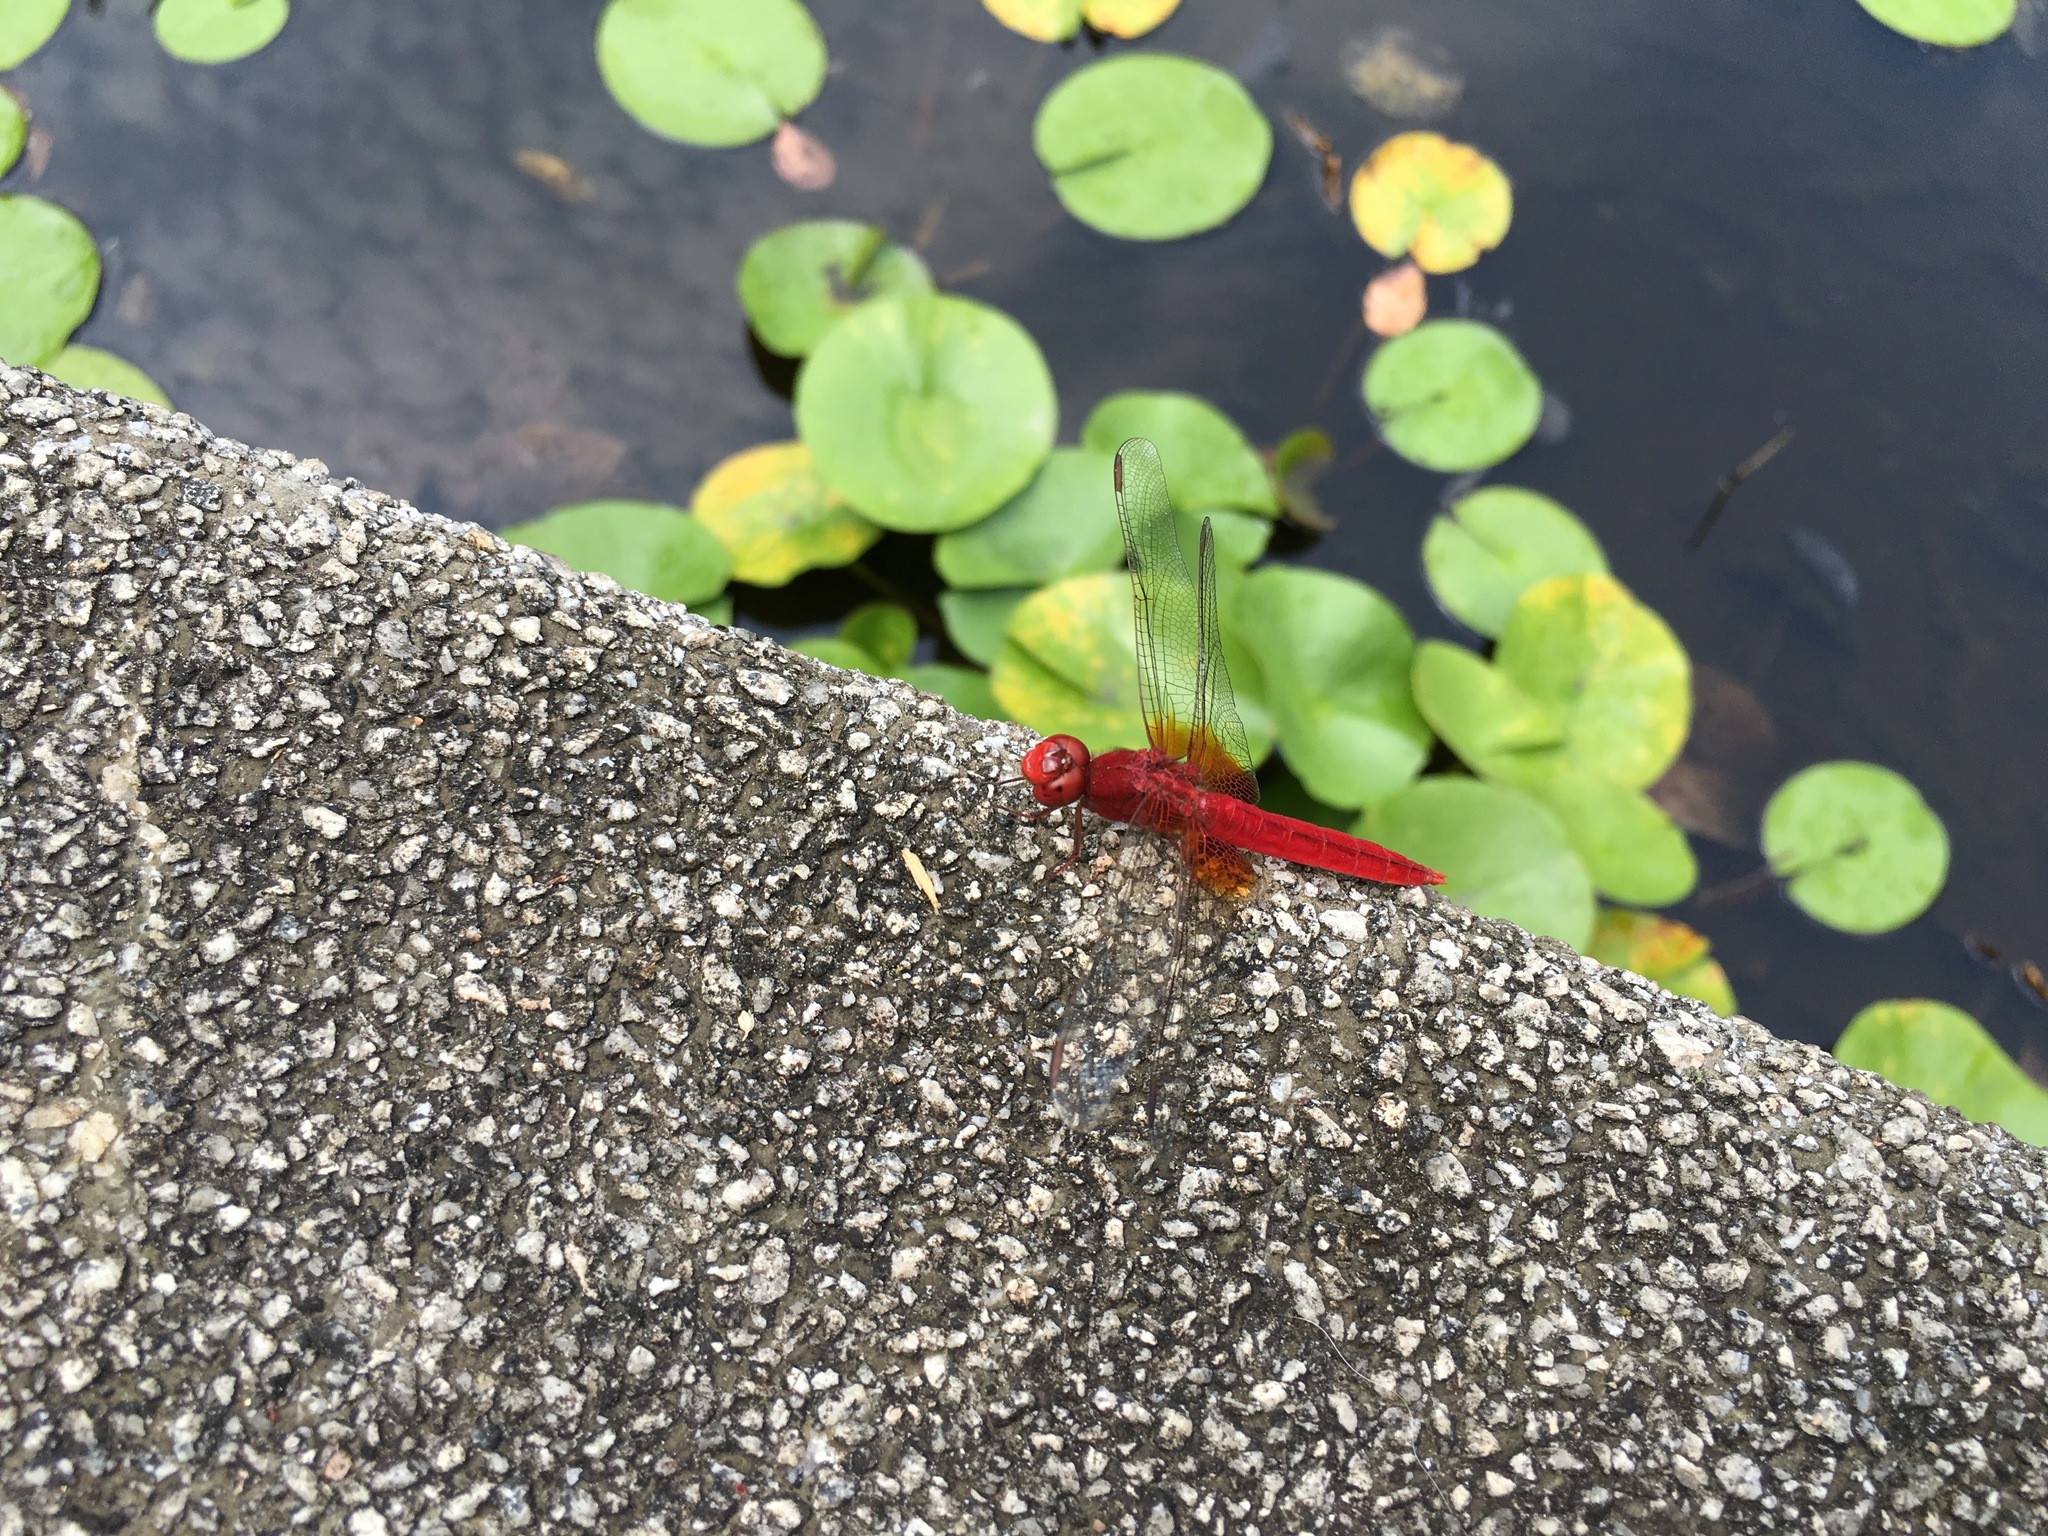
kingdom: Animalia
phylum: Arthropoda
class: Insecta
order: Odonata
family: Libellulidae
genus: Crocothemis
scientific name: Crocothemis servilia
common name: Scarlet skimmer
